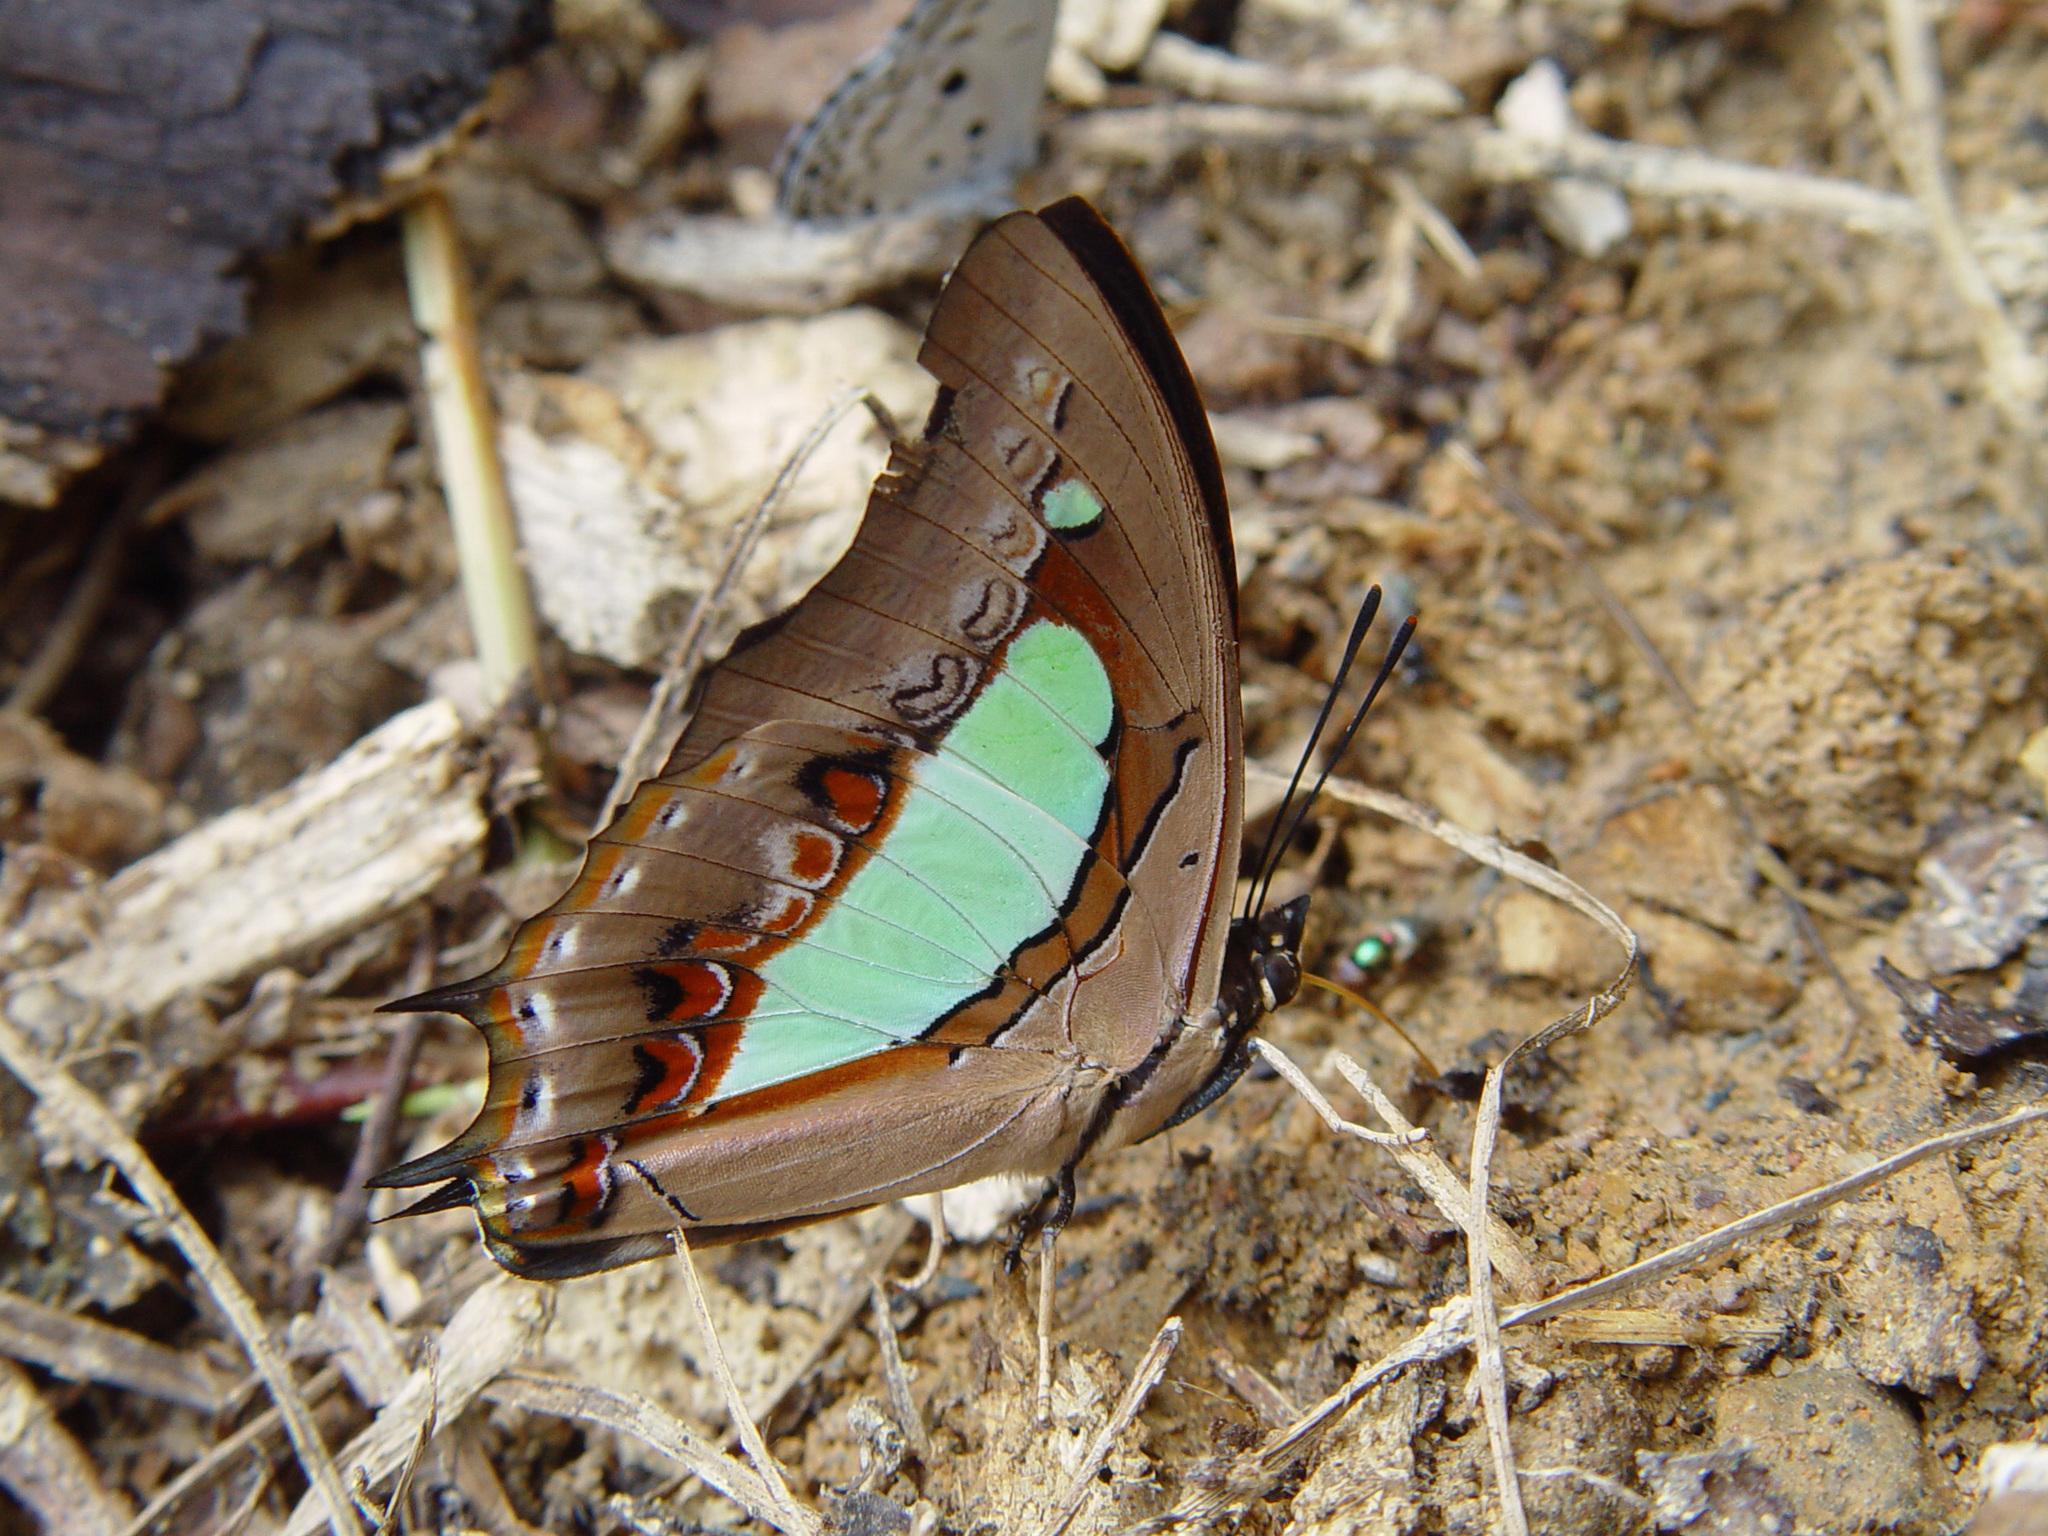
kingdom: Animalia
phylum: Arthropoda
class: Insecta
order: Lepidoptera
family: Nymphalidae
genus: Polyura
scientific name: Polyura athamas
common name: Common nawab
